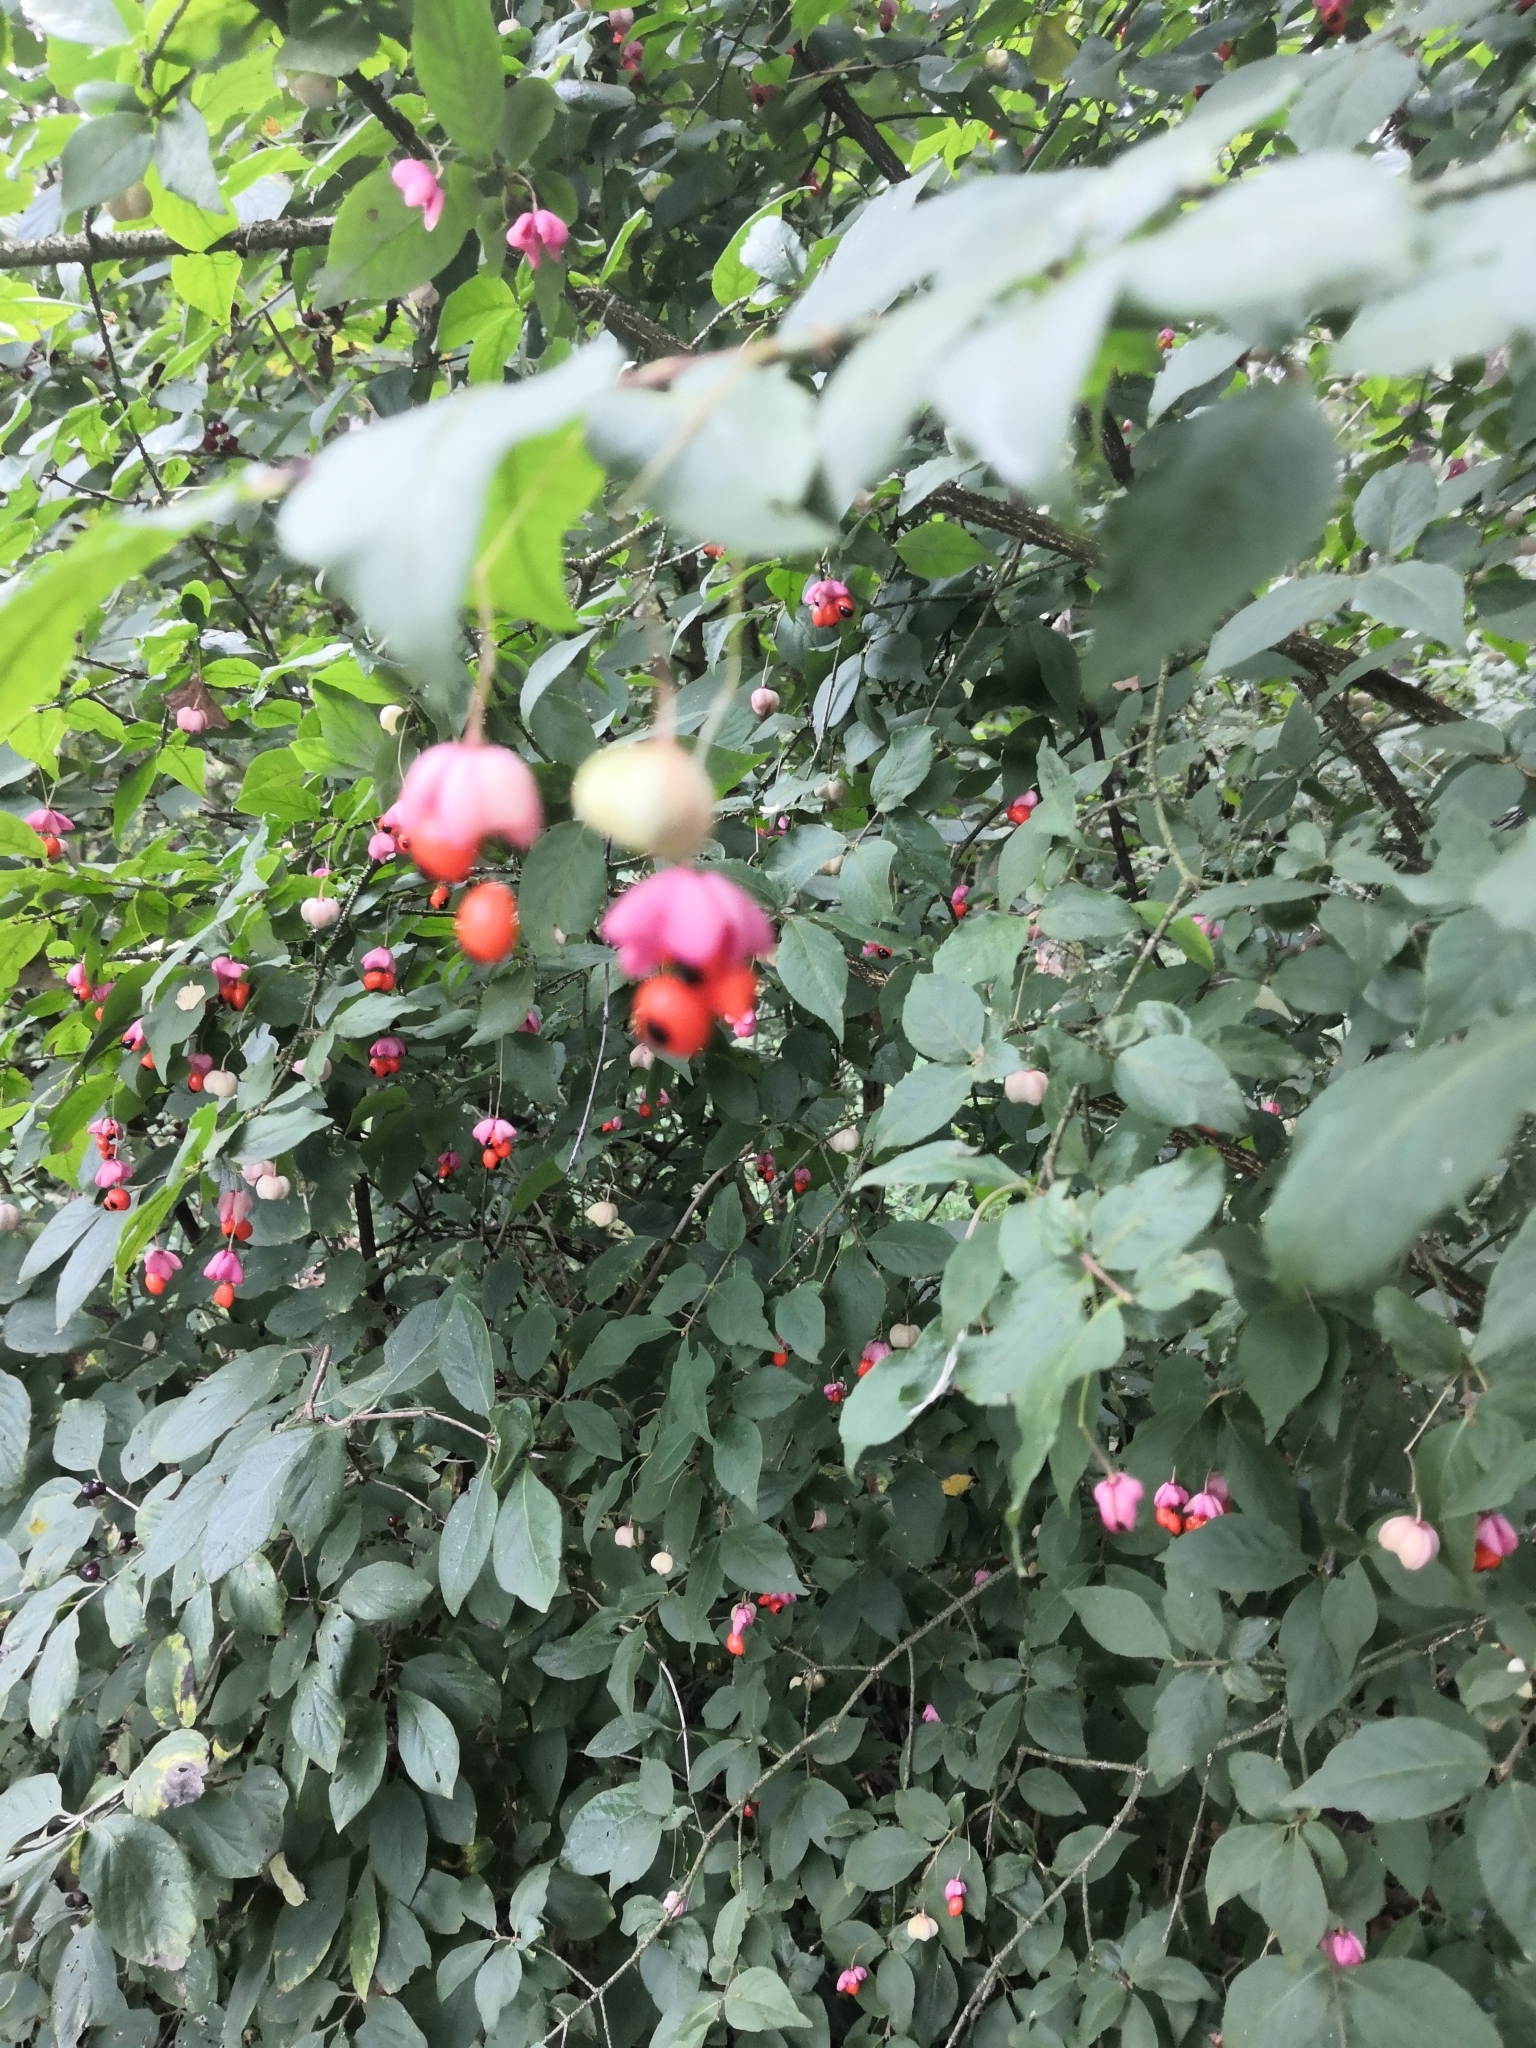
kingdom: Plantae
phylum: Tracheophyta
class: Magnoliopsida
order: Celastrales
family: Celastraceae
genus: Euonymus
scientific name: Euonymus verrucosus
